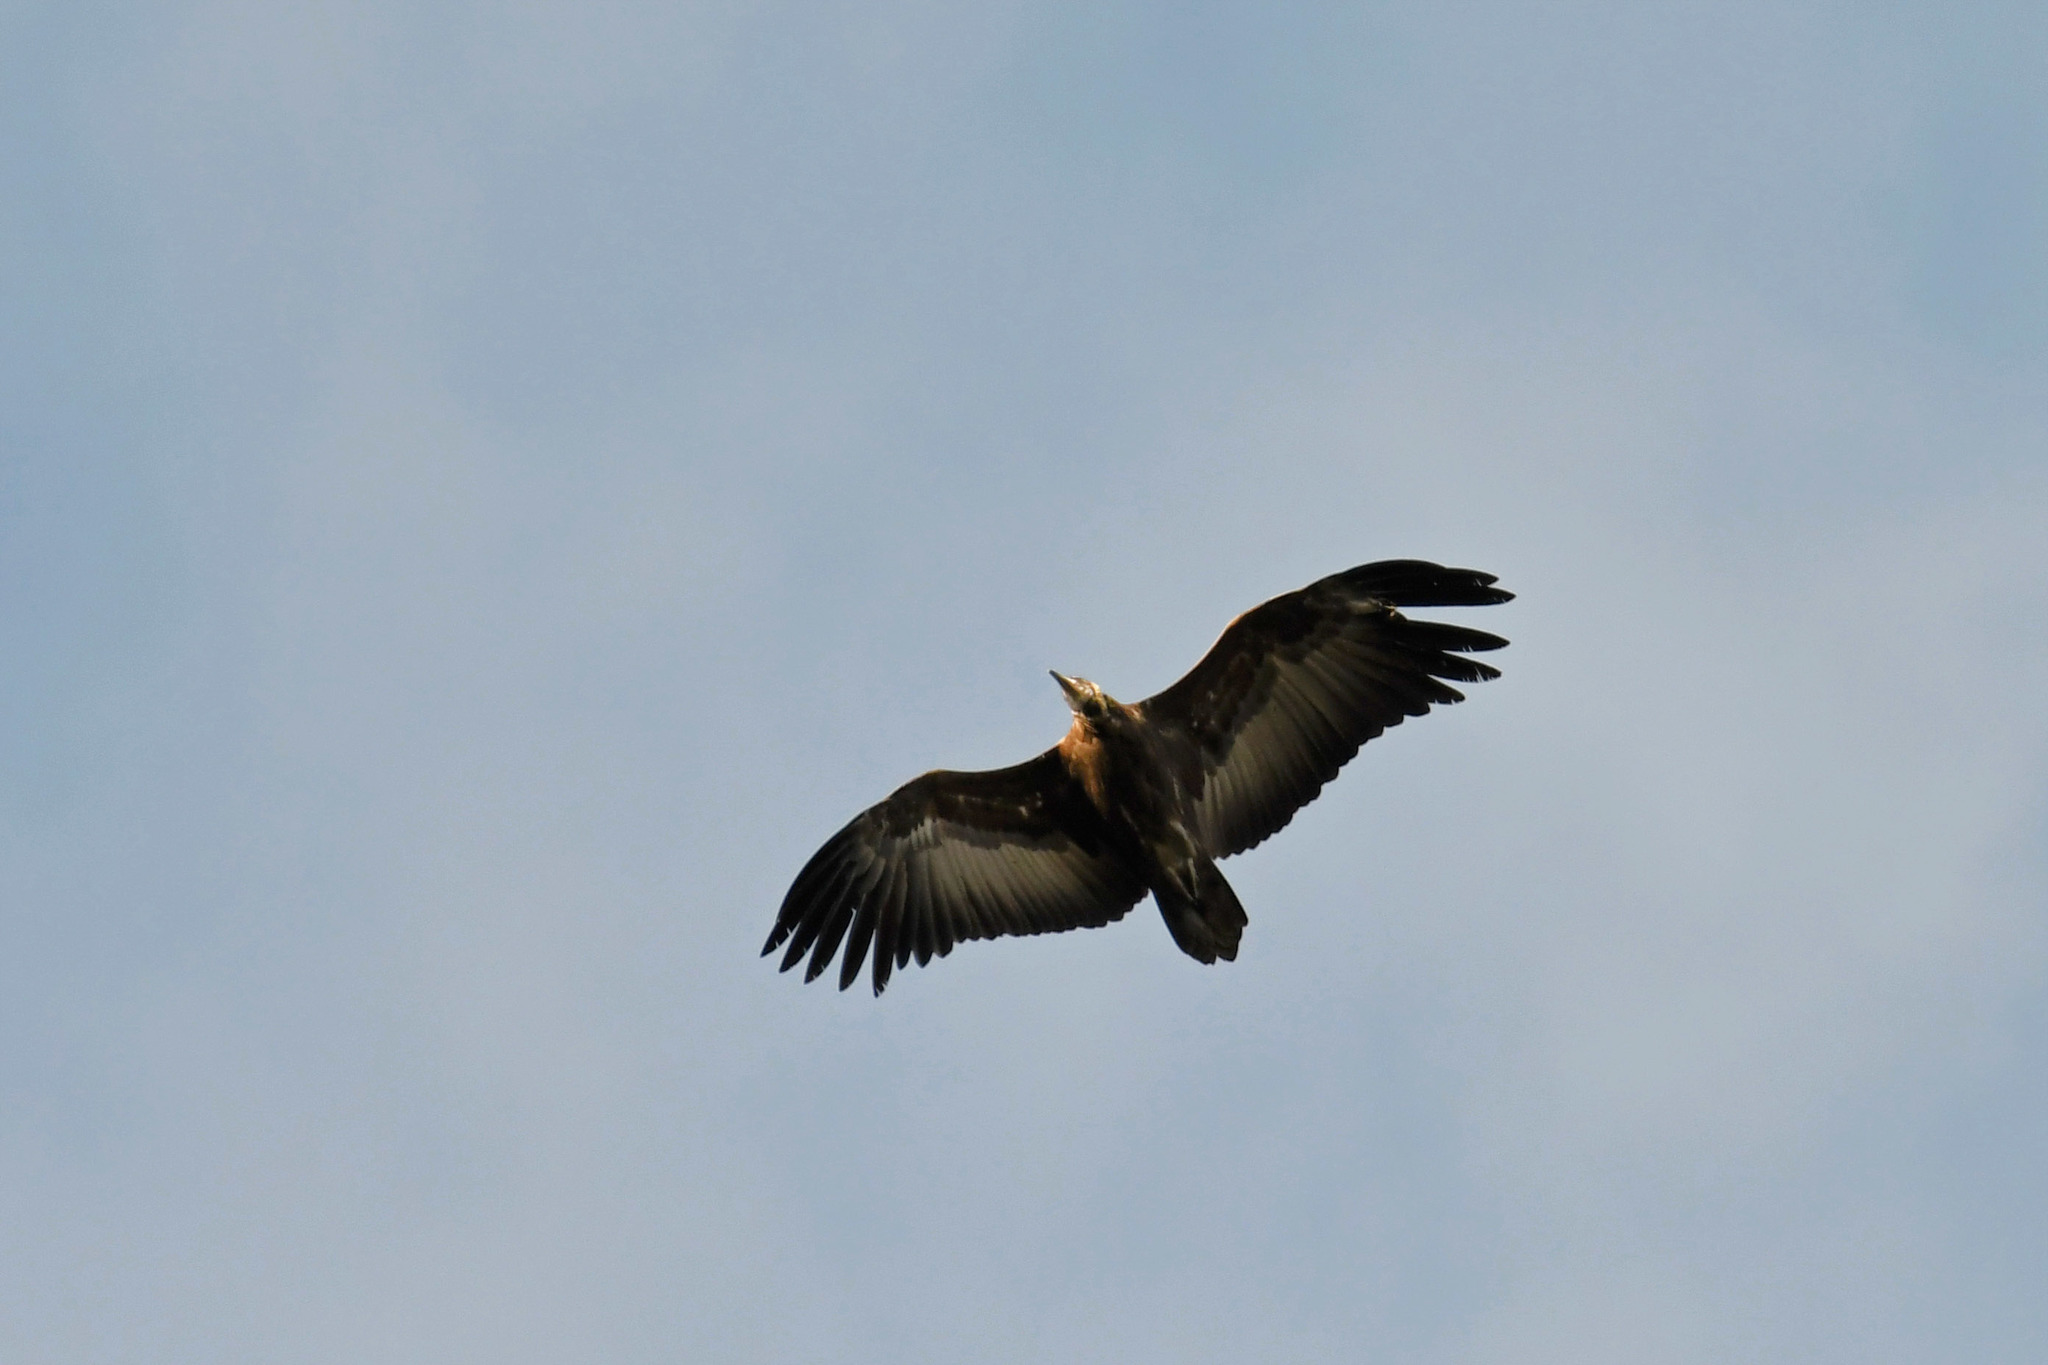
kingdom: Animalia
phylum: Chordata
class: Aves
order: Accipitriformes
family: Accipitridae
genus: Necrosyrtes
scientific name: Necrosyrtes monachus
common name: Hooded vulture
